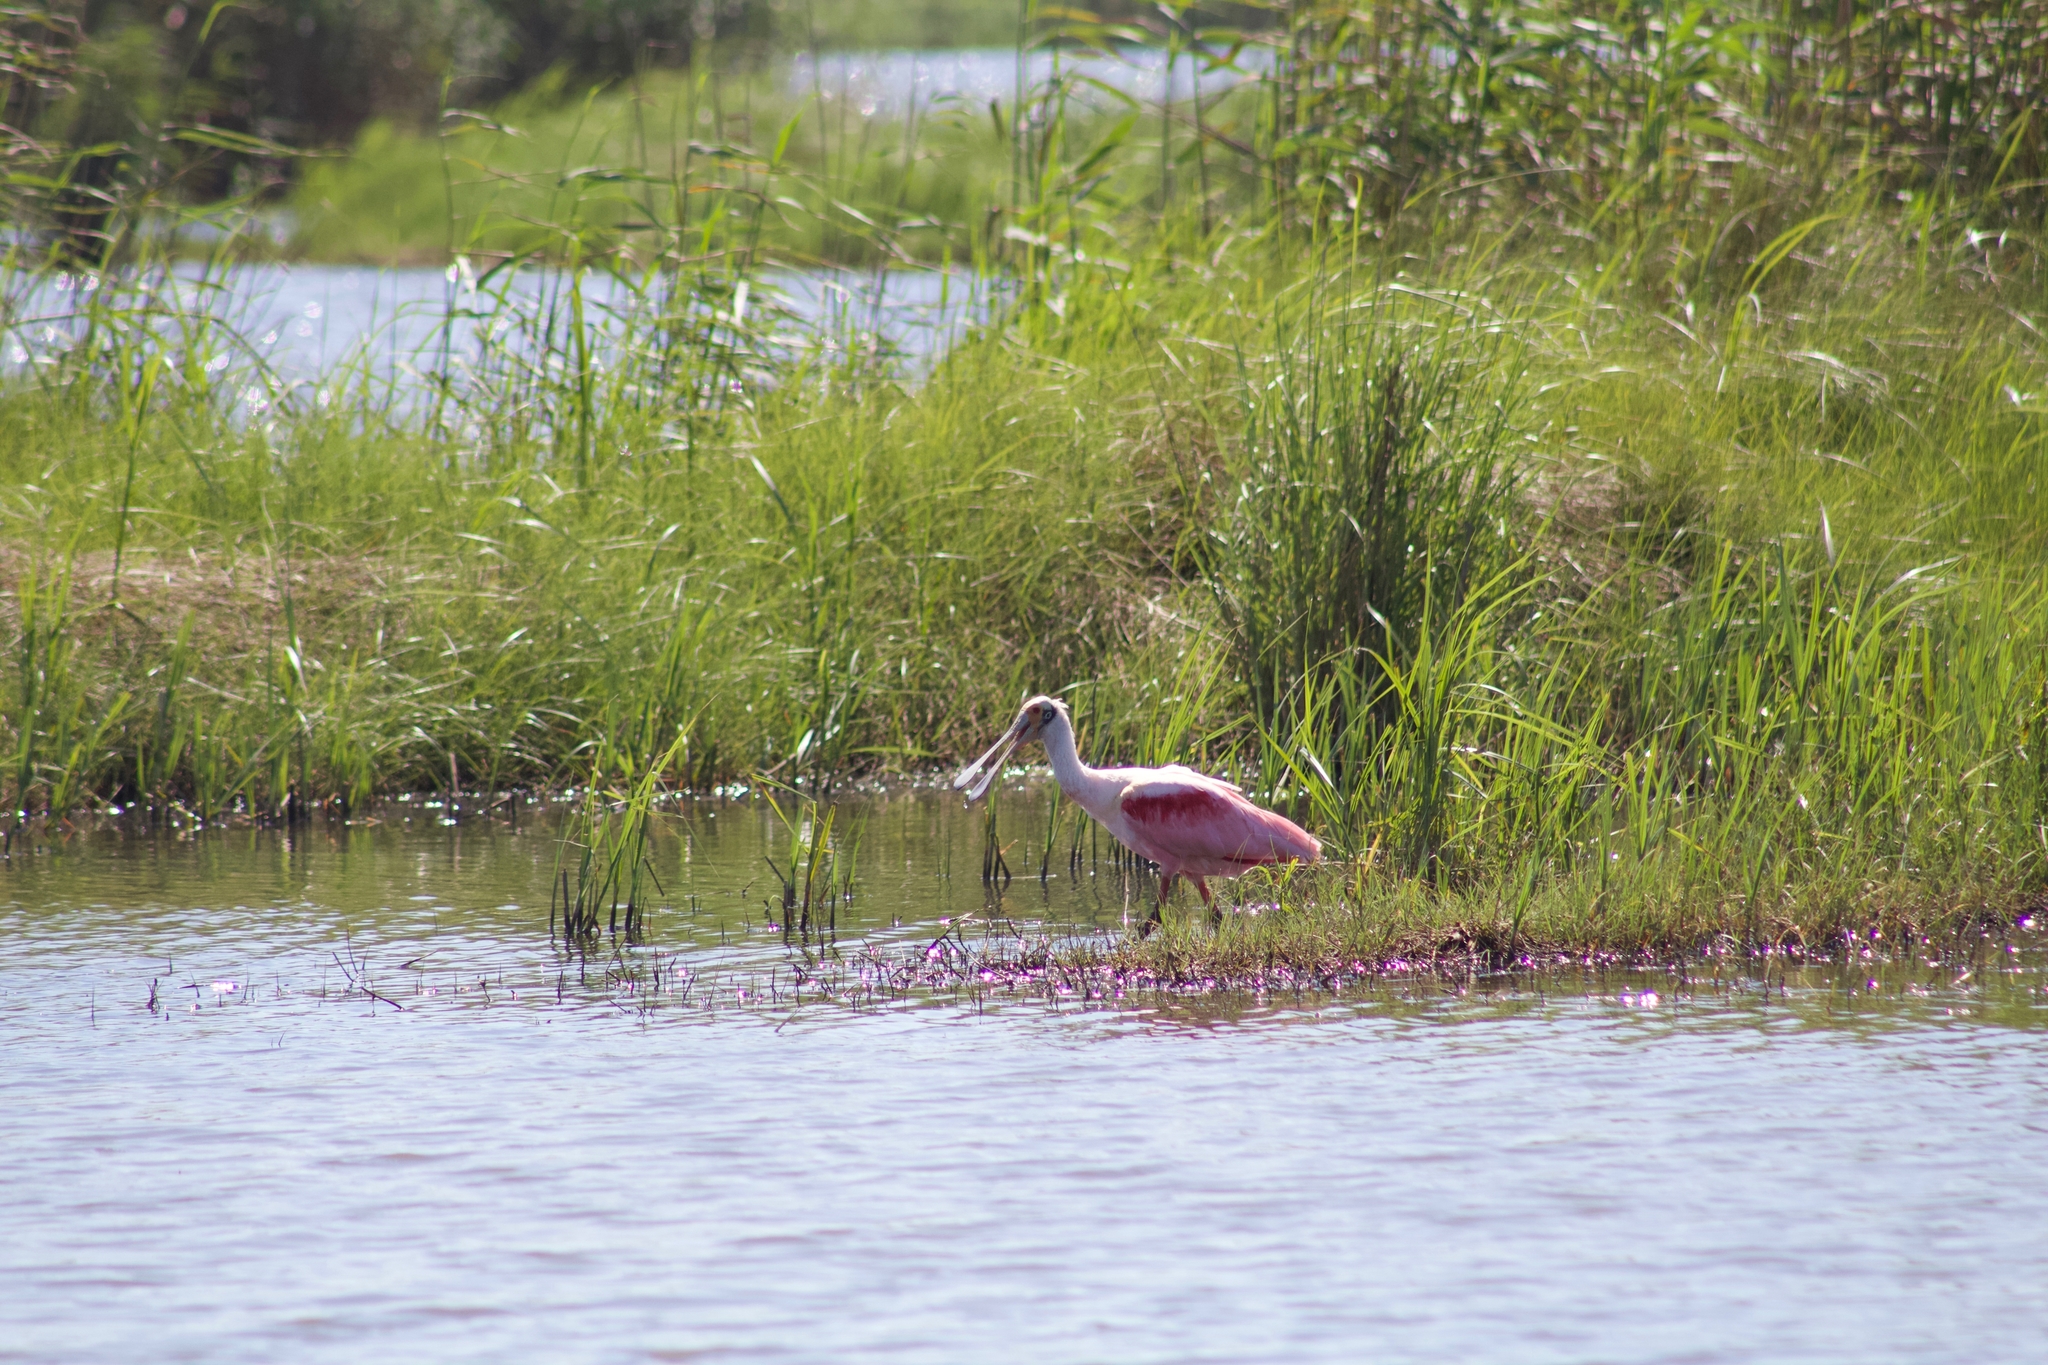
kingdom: Animalia
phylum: Chordata
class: Aves
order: Pelecaniformes
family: Threskiornithidae
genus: Platalea
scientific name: Platalea ajaja
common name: Roseate spoonbill
